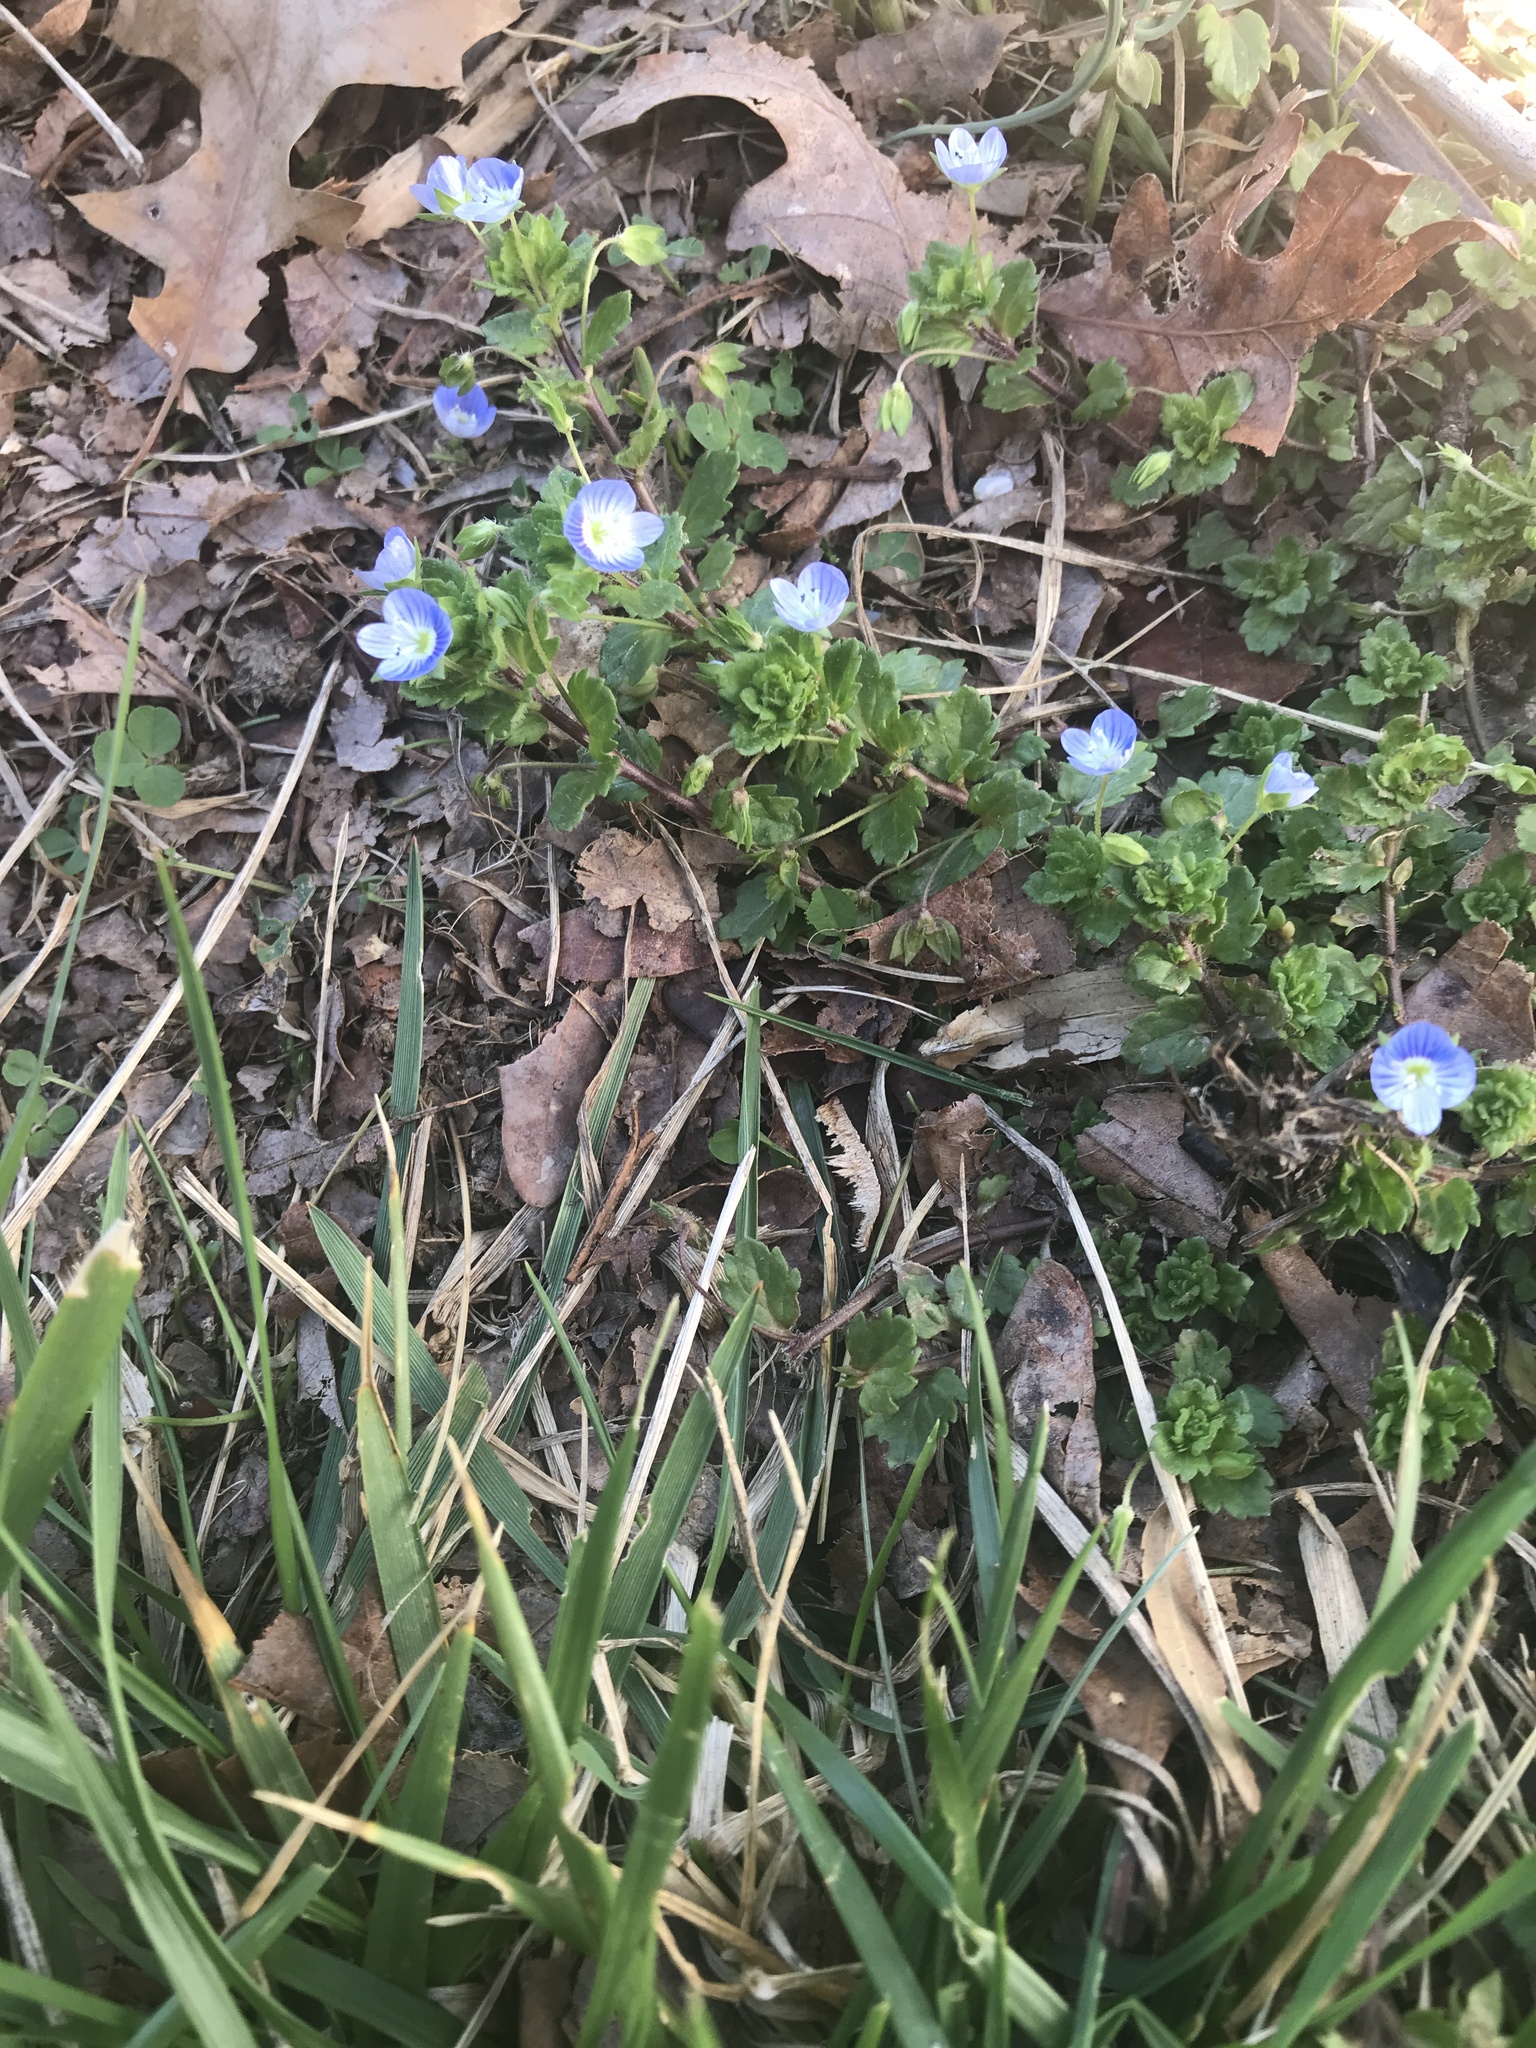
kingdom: Plantae
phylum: Tracheophyta
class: Magnoliopsida
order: Lamiales
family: Plantaginaceae
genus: Veronica
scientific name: Veronica persica
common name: Common field-speedwell
